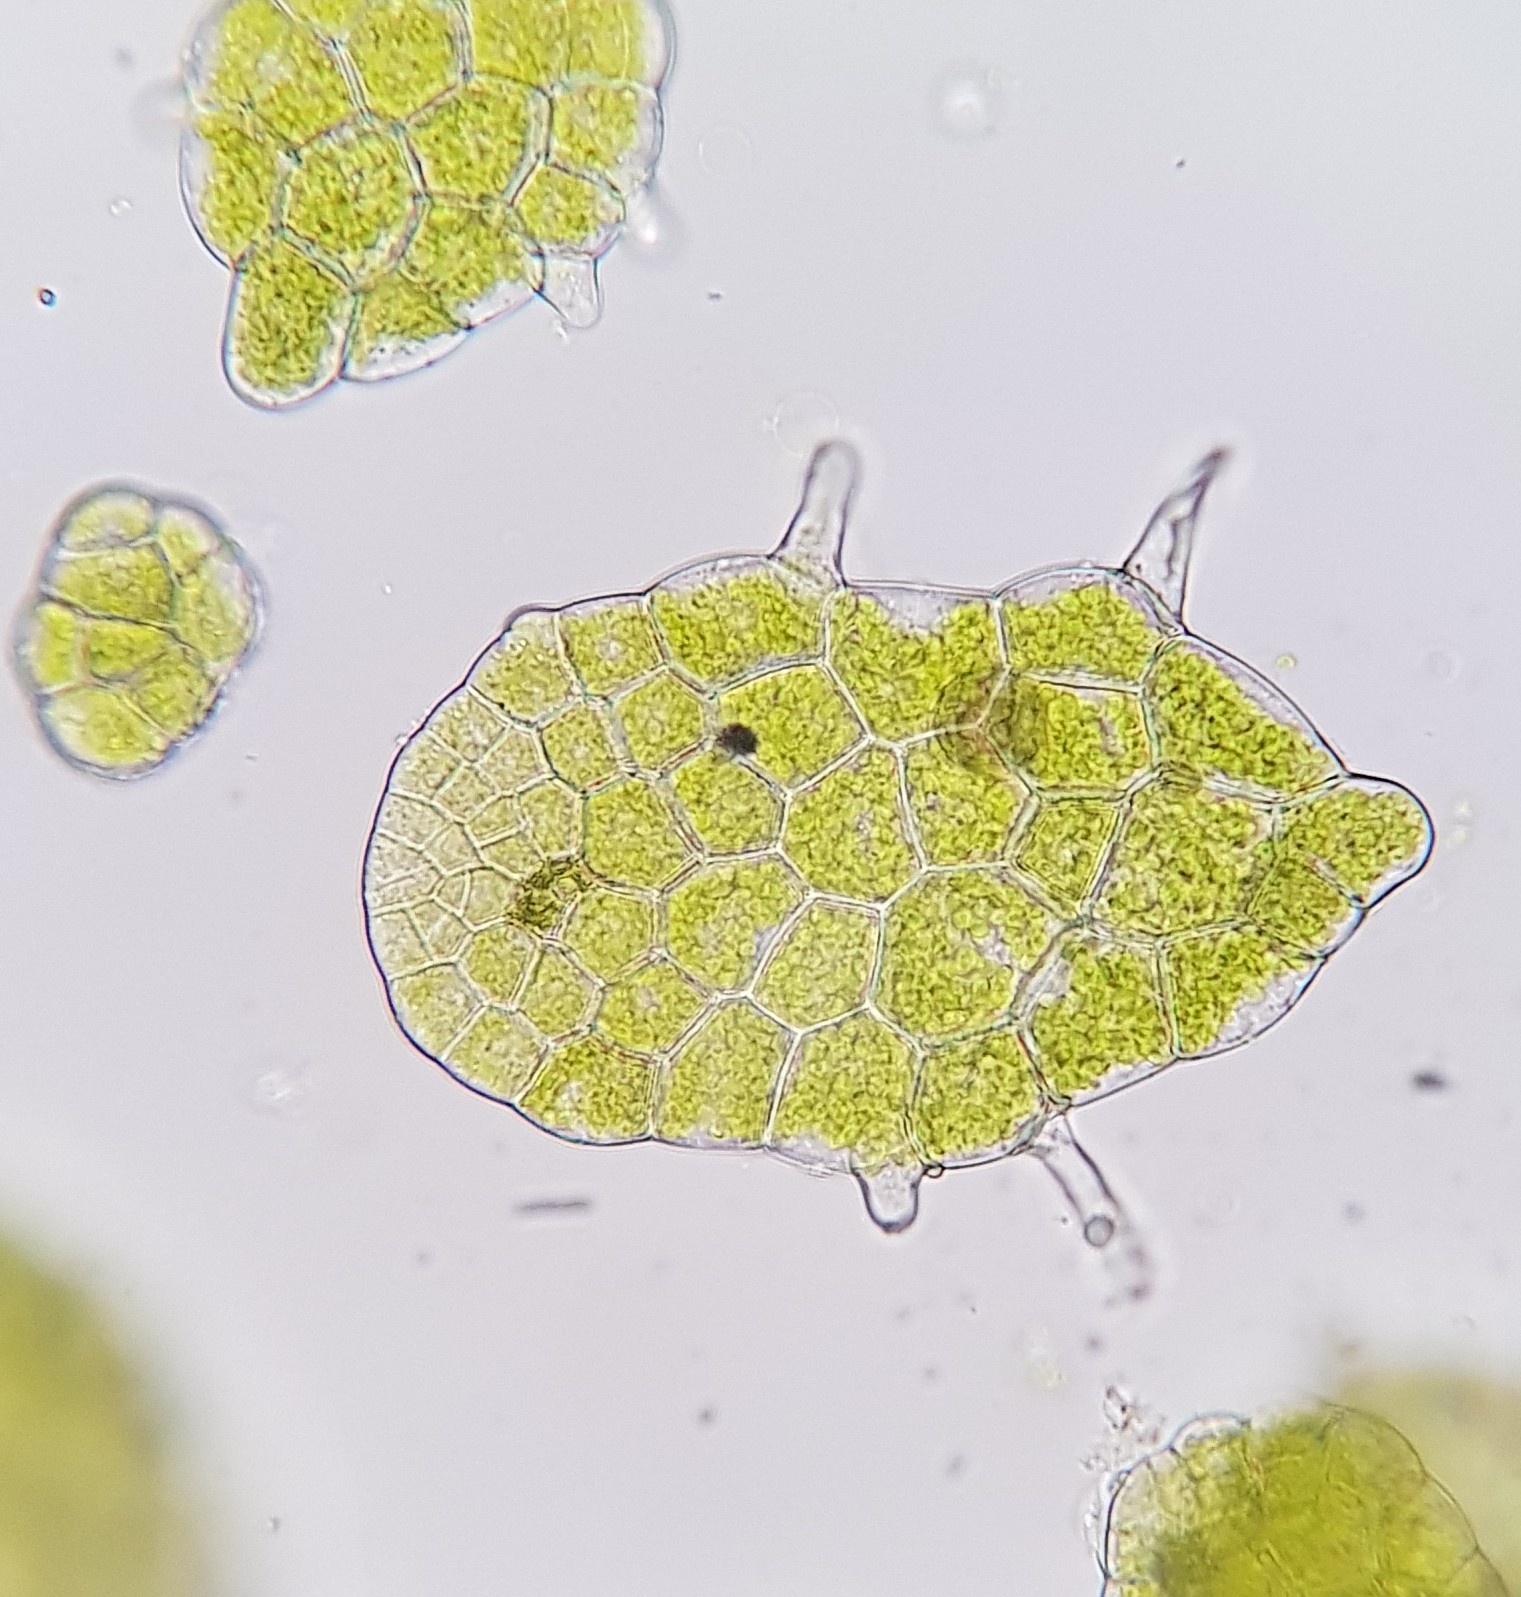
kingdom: Plantae
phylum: Marchantiophyta
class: Jungermanniopsida
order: Metzgeriales
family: Metzgeriaceae
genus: Metzgeria
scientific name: Metzgeria violacea
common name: Blueish veilwort
